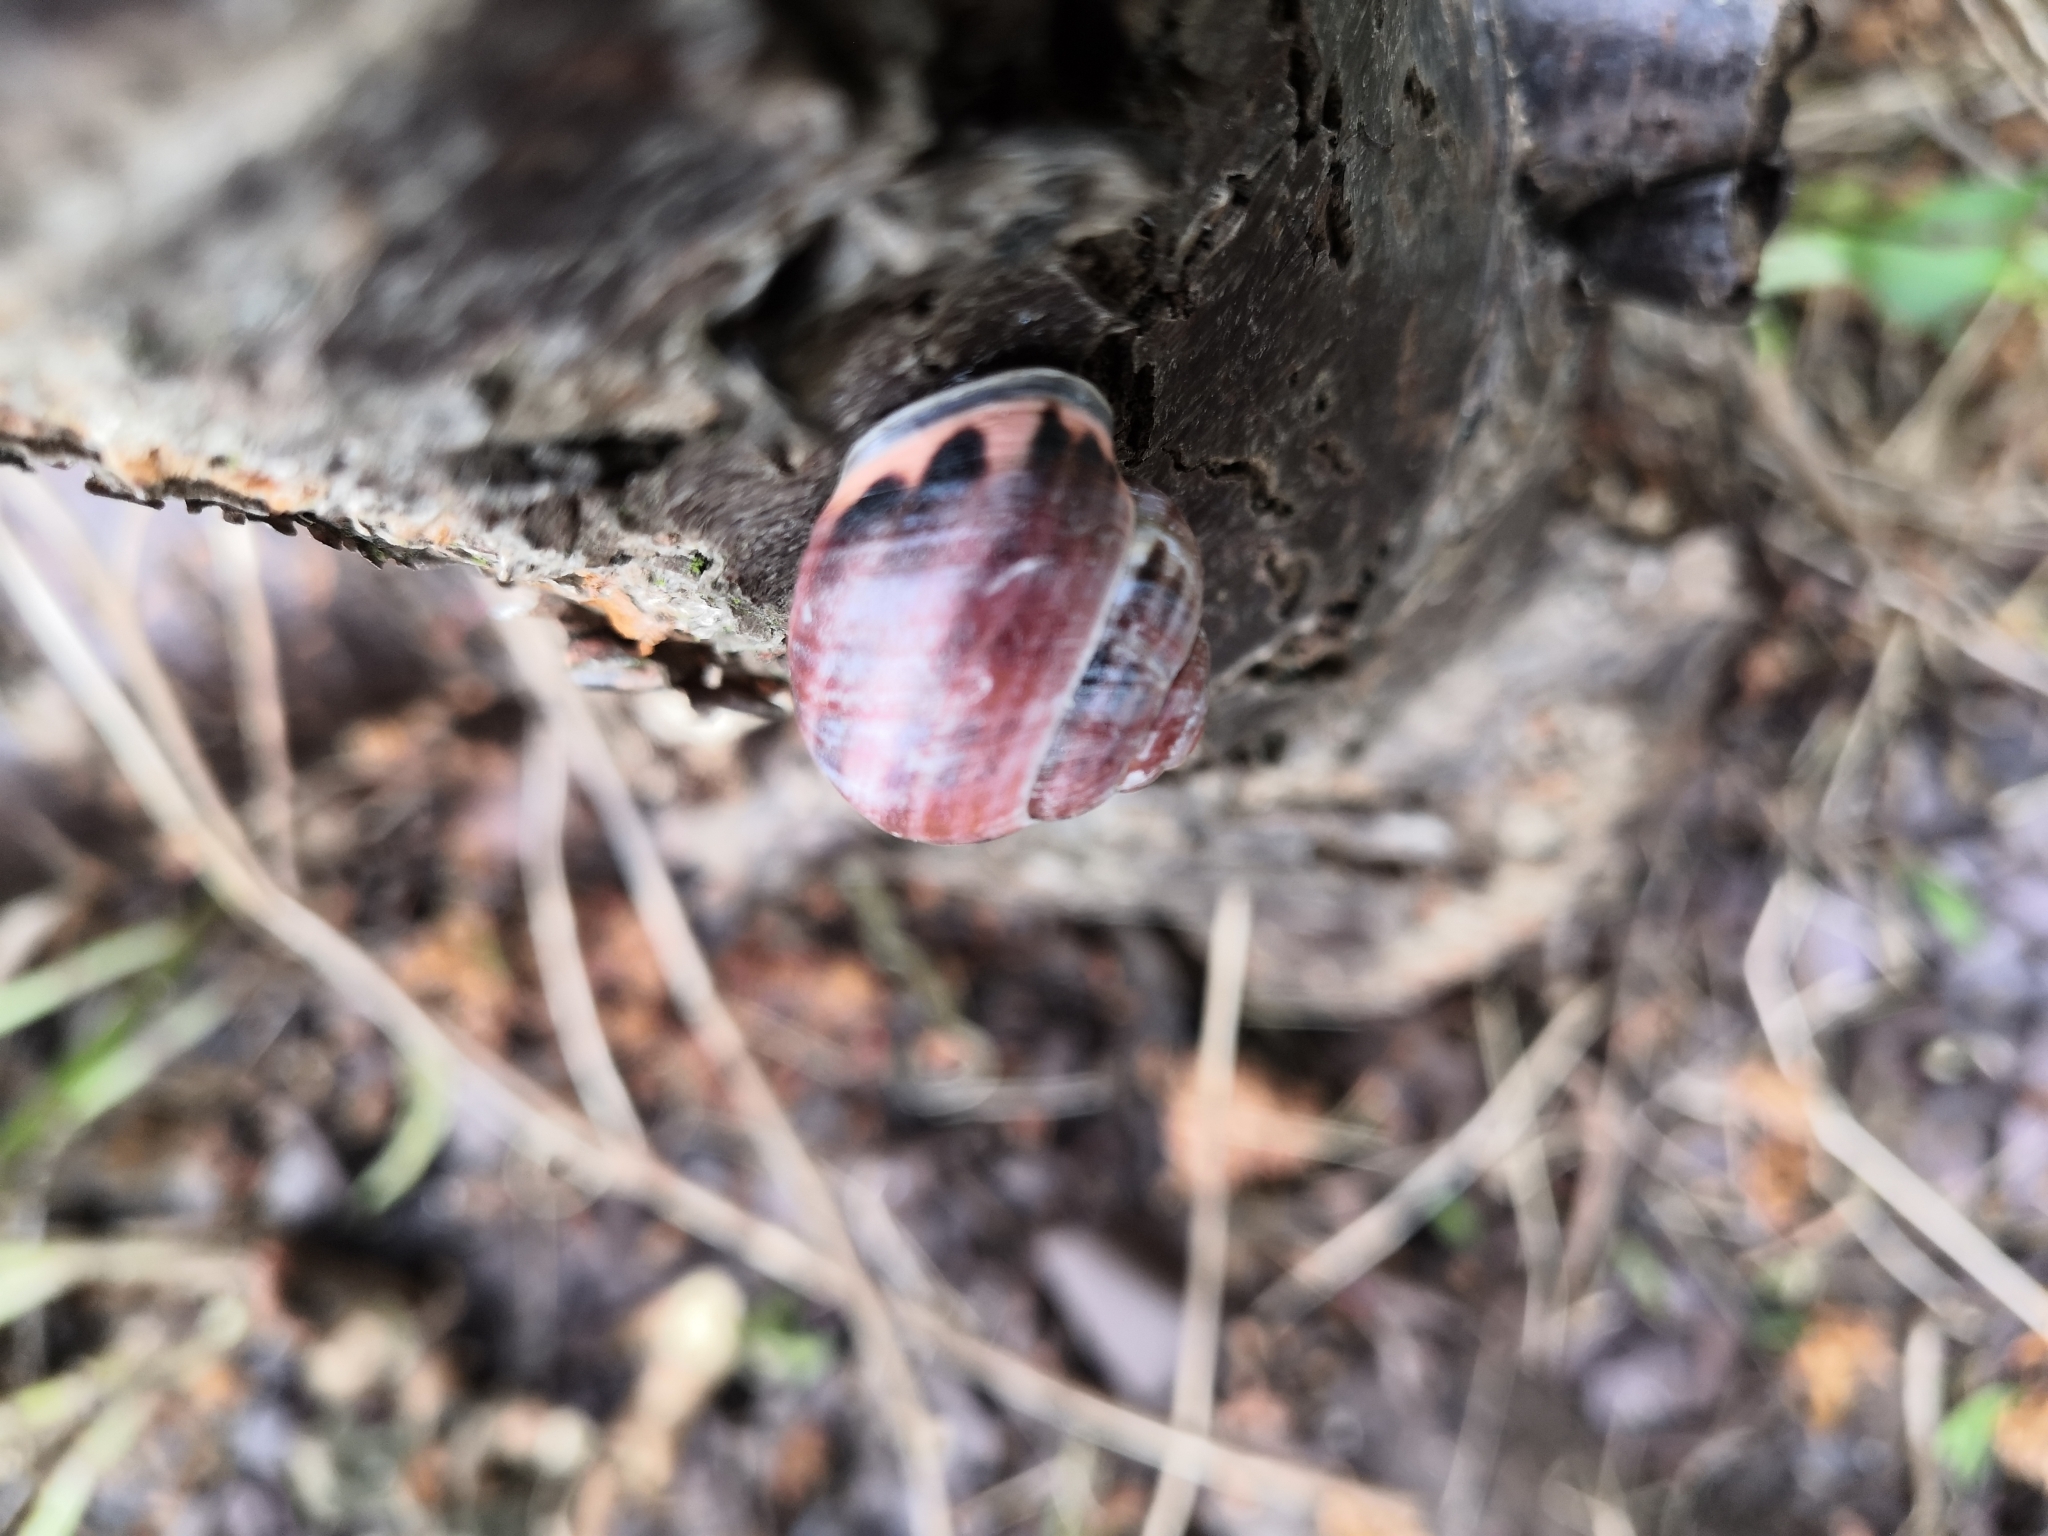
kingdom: Animalia
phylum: Mollusca
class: Gastropoda
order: Stylommatophora
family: Helicidae
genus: Cepaea
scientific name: Cepaea nemoralis
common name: Grovesnail
